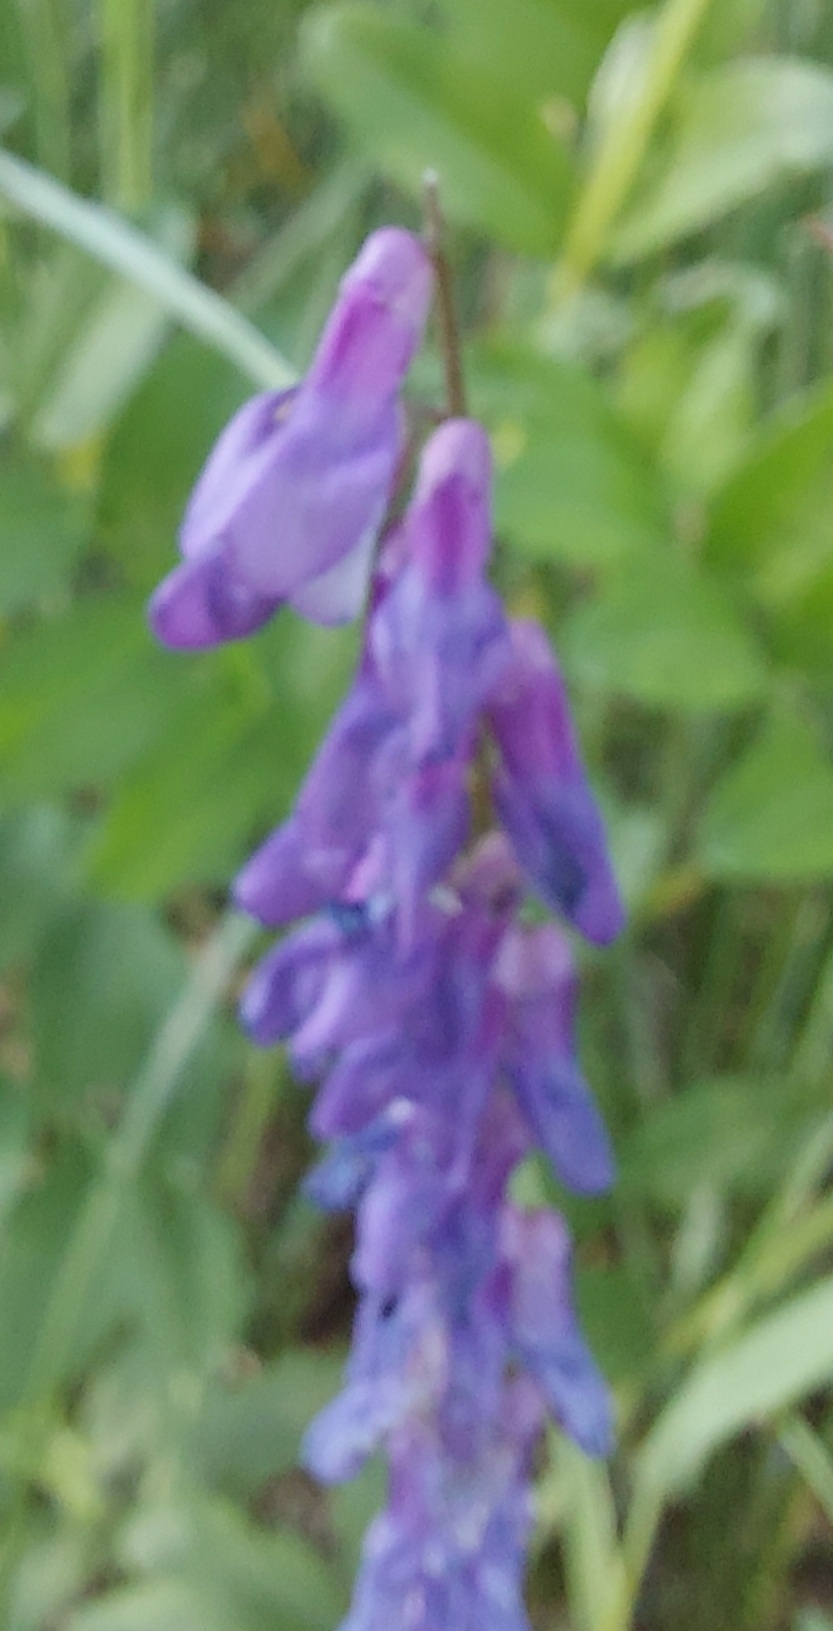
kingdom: Plantae
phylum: Tracheophyta
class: Magnoliopsida
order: Fabales
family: Fabaceae
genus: Vicia
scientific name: Vicia cracca
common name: Bird vetch
